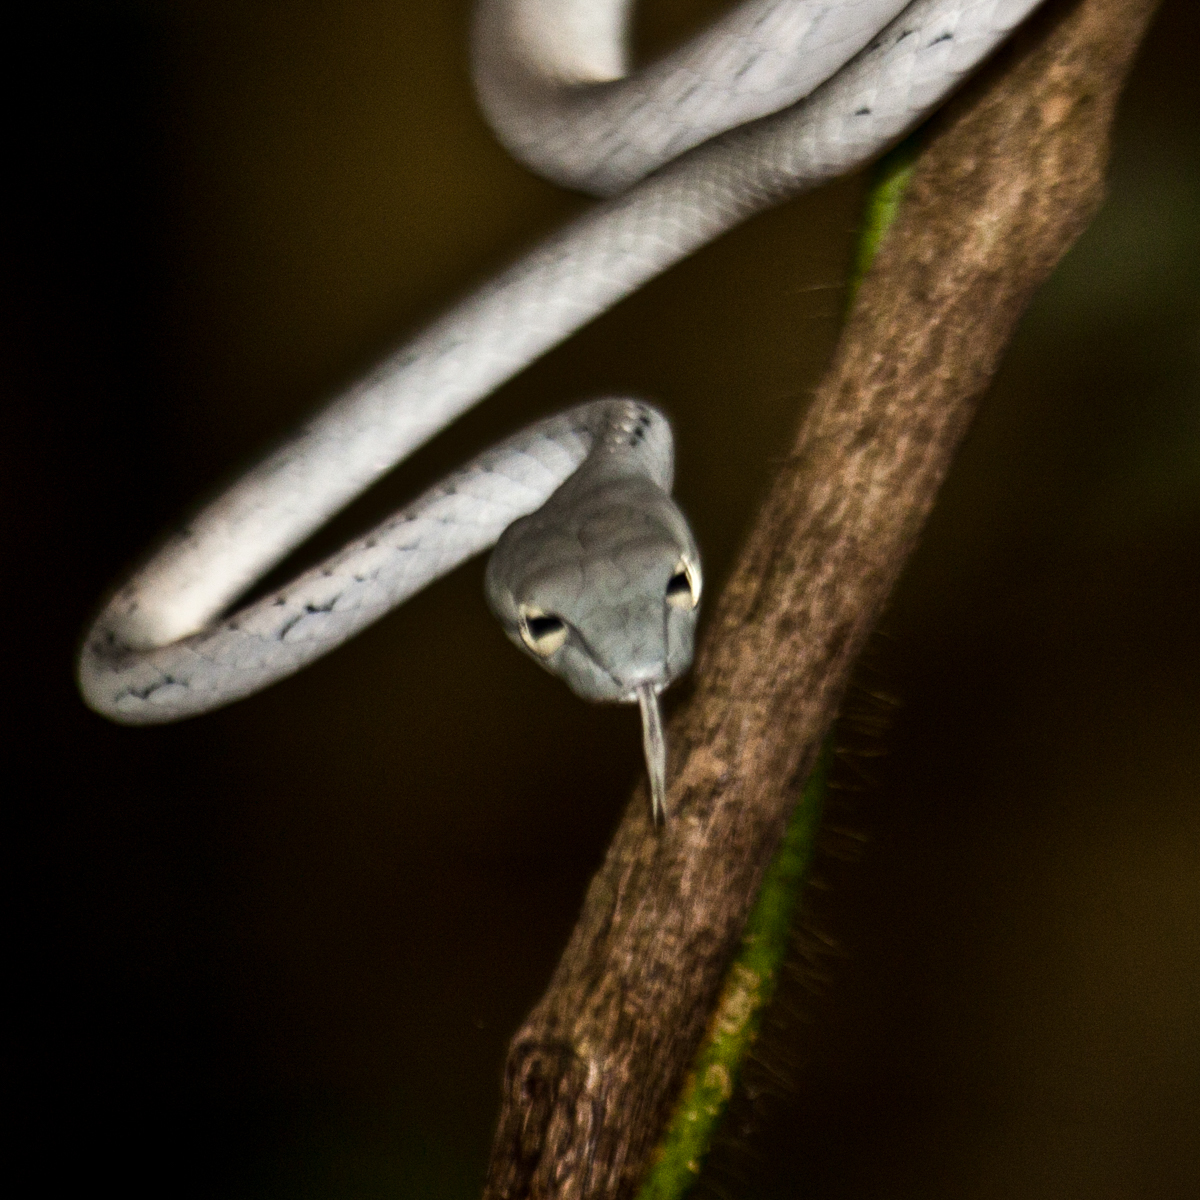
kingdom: Animalia
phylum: Chordata
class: Squamata
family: Colubridae
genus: Ahaetulla
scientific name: Ahaetulla prasina
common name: Oriental whip snake
